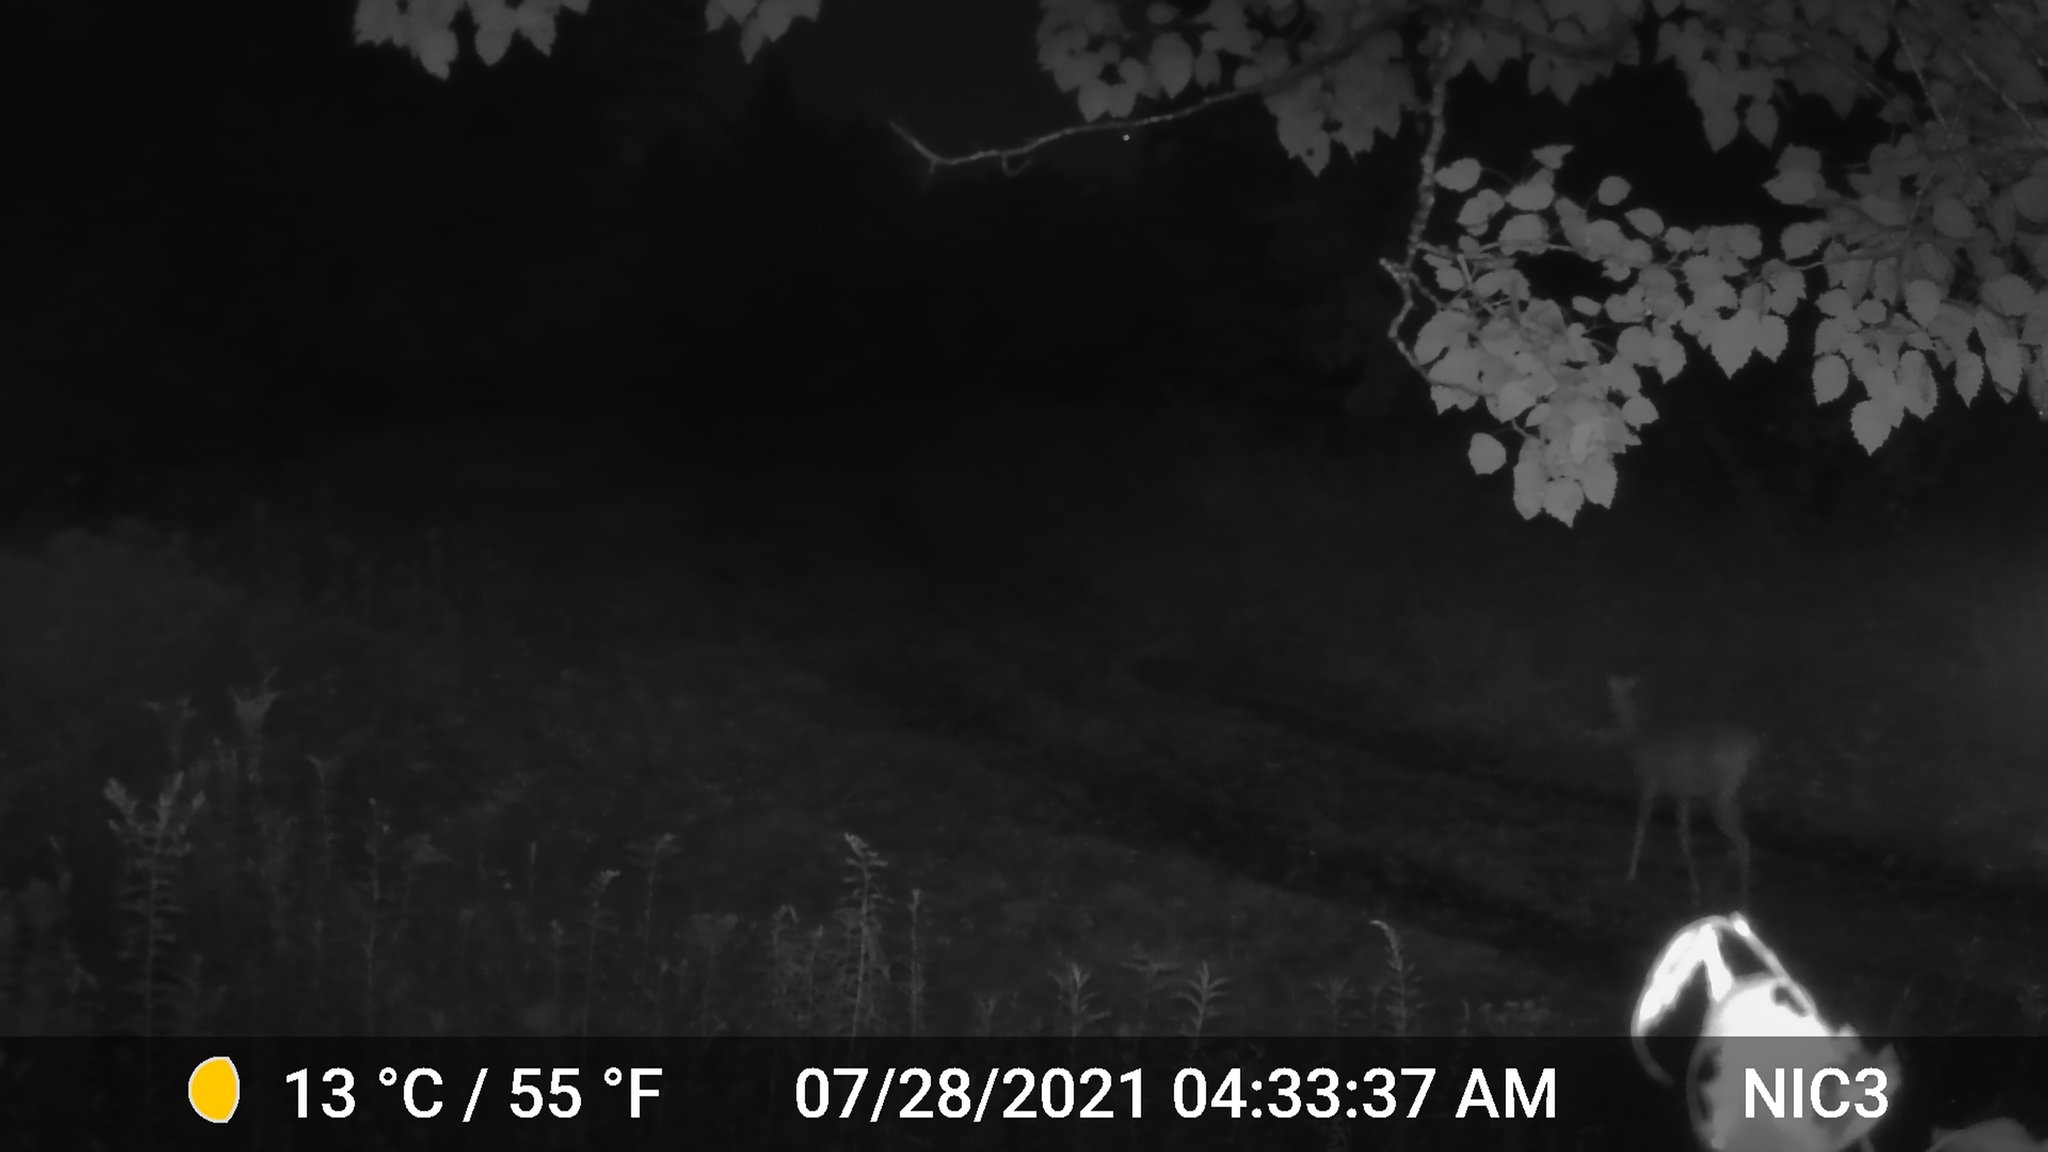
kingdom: Animalia
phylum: Chordata
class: Mammalia
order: Artiodactyla
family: Cervidae
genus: Odocoileus
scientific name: Odocoileus virginianus
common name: White-tailed deer
